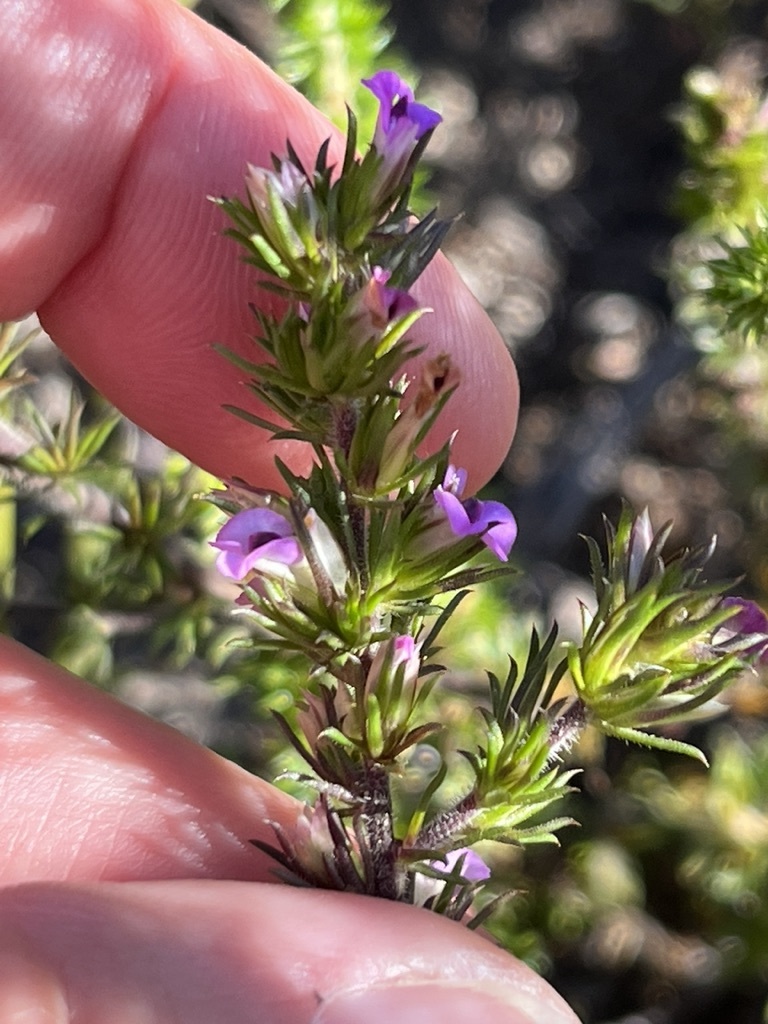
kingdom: Plantae
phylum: Tracheophyta
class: Magnoliopsida
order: Fabales
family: Polygalaceae
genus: Muraltia
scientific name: Muraltia rubeacea
